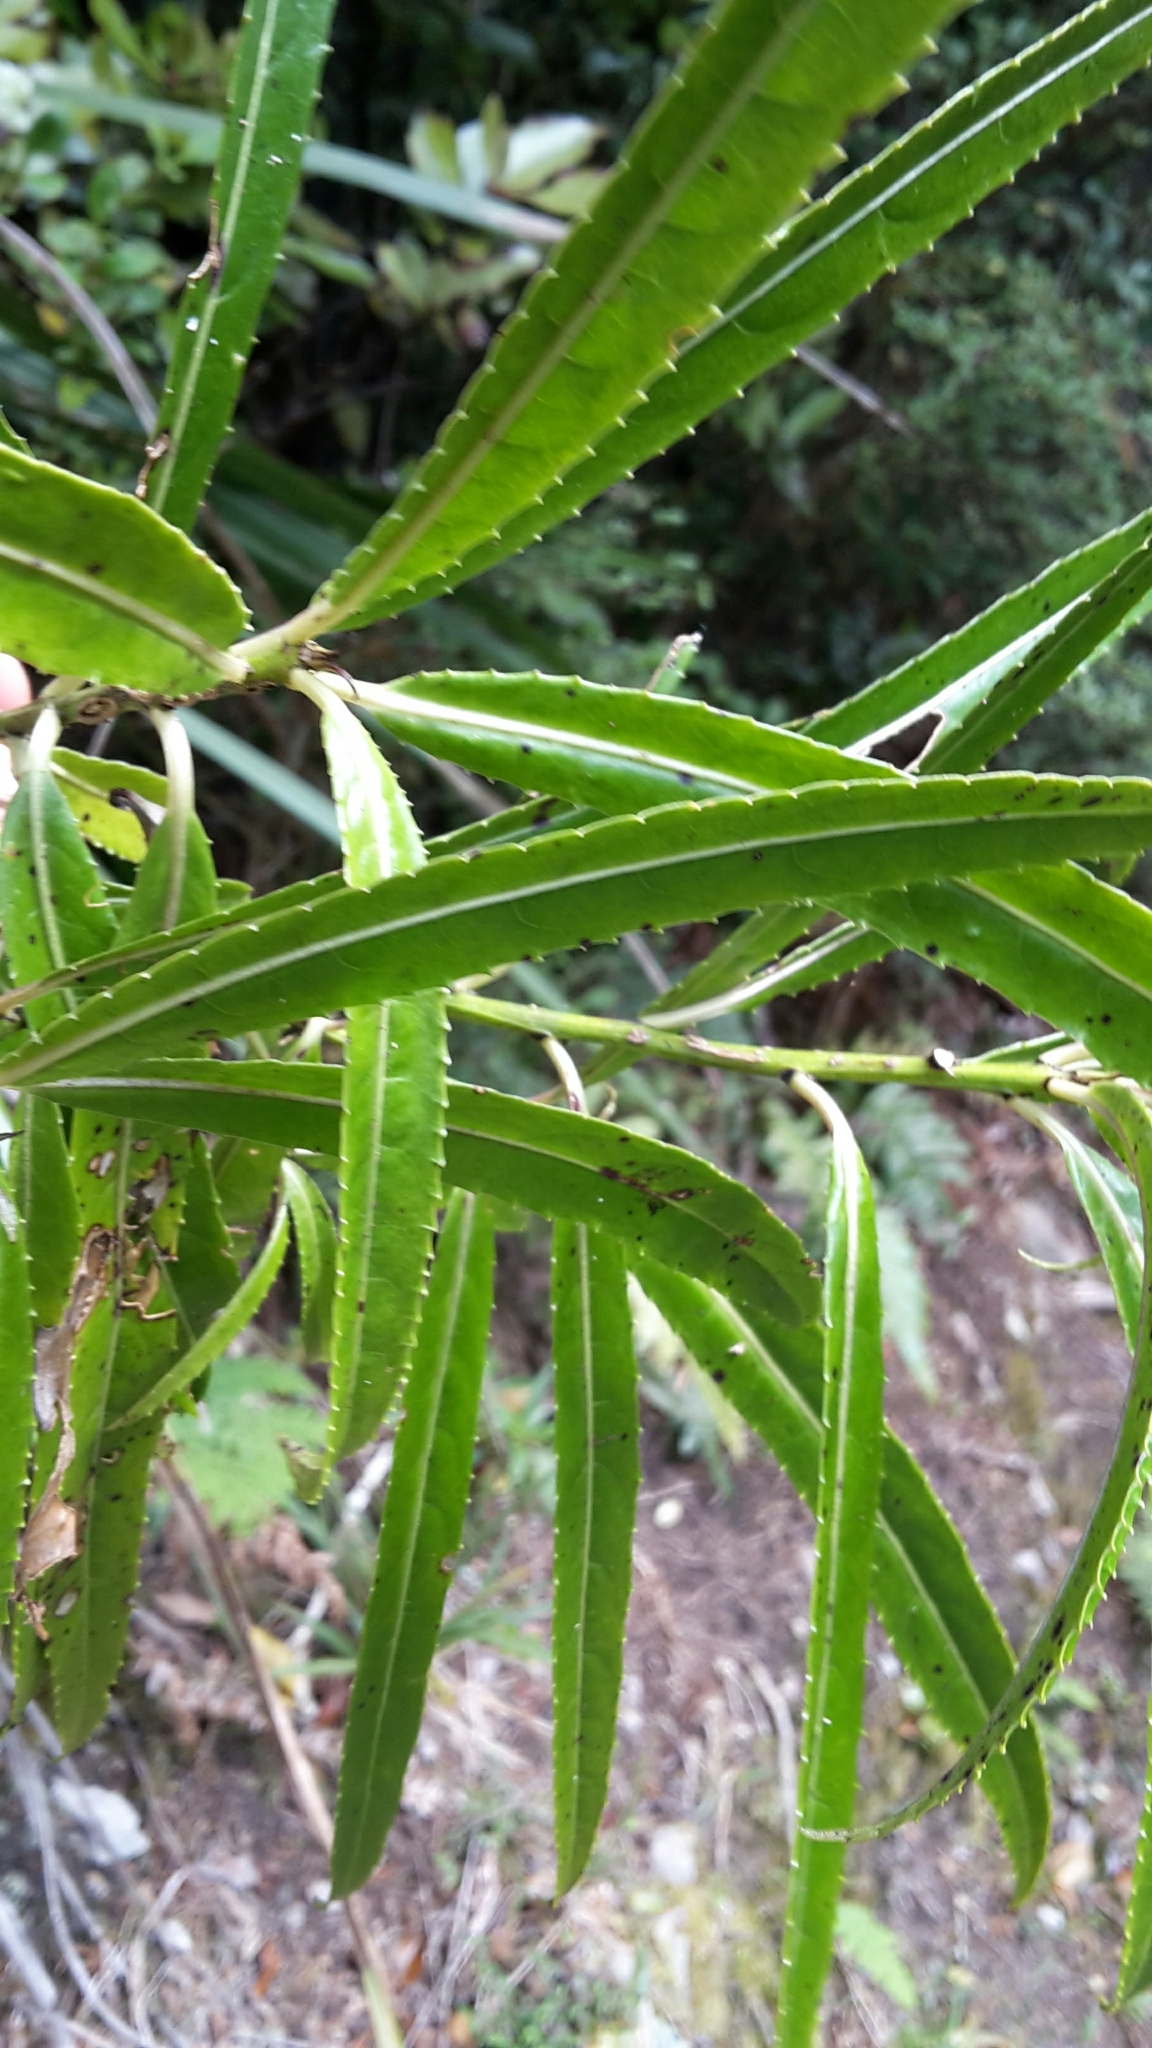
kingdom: Plantae
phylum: Tracheophyta
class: Magnoliopsida
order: Malpighiales
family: Violaceae
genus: Melicytus
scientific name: Melicytus lanceolatus
